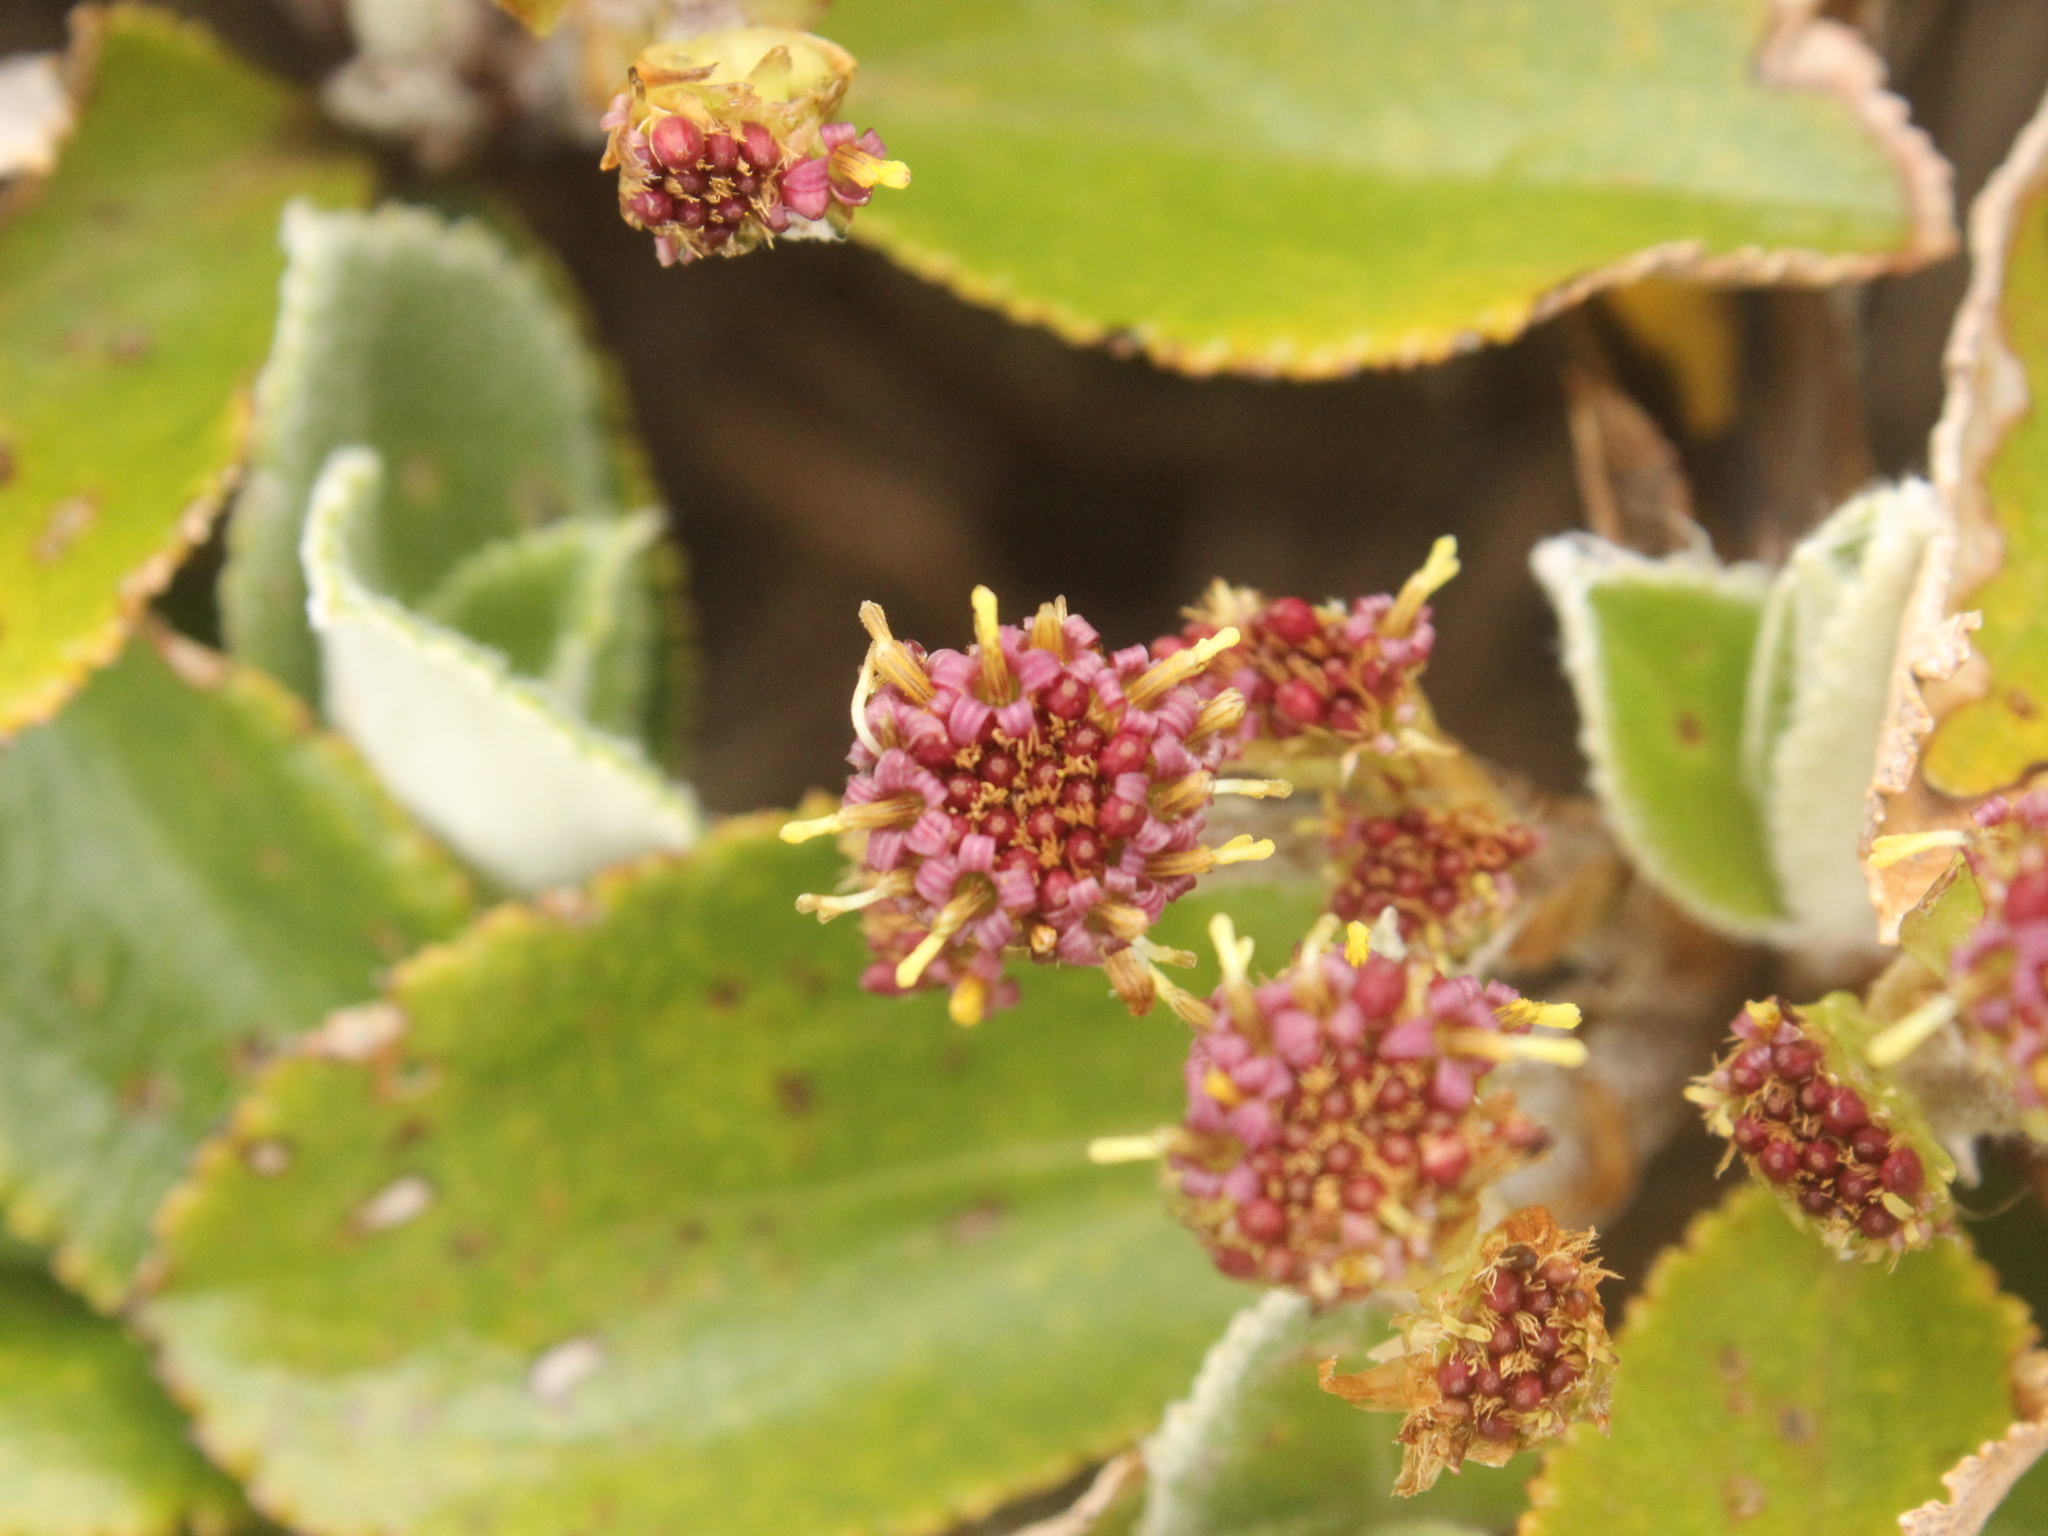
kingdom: Plantae
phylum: Tracheophyta
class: Magnoliopsida
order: Asterales
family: Asteraceae
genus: Macrolearia
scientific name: Macrolearia colensoi
